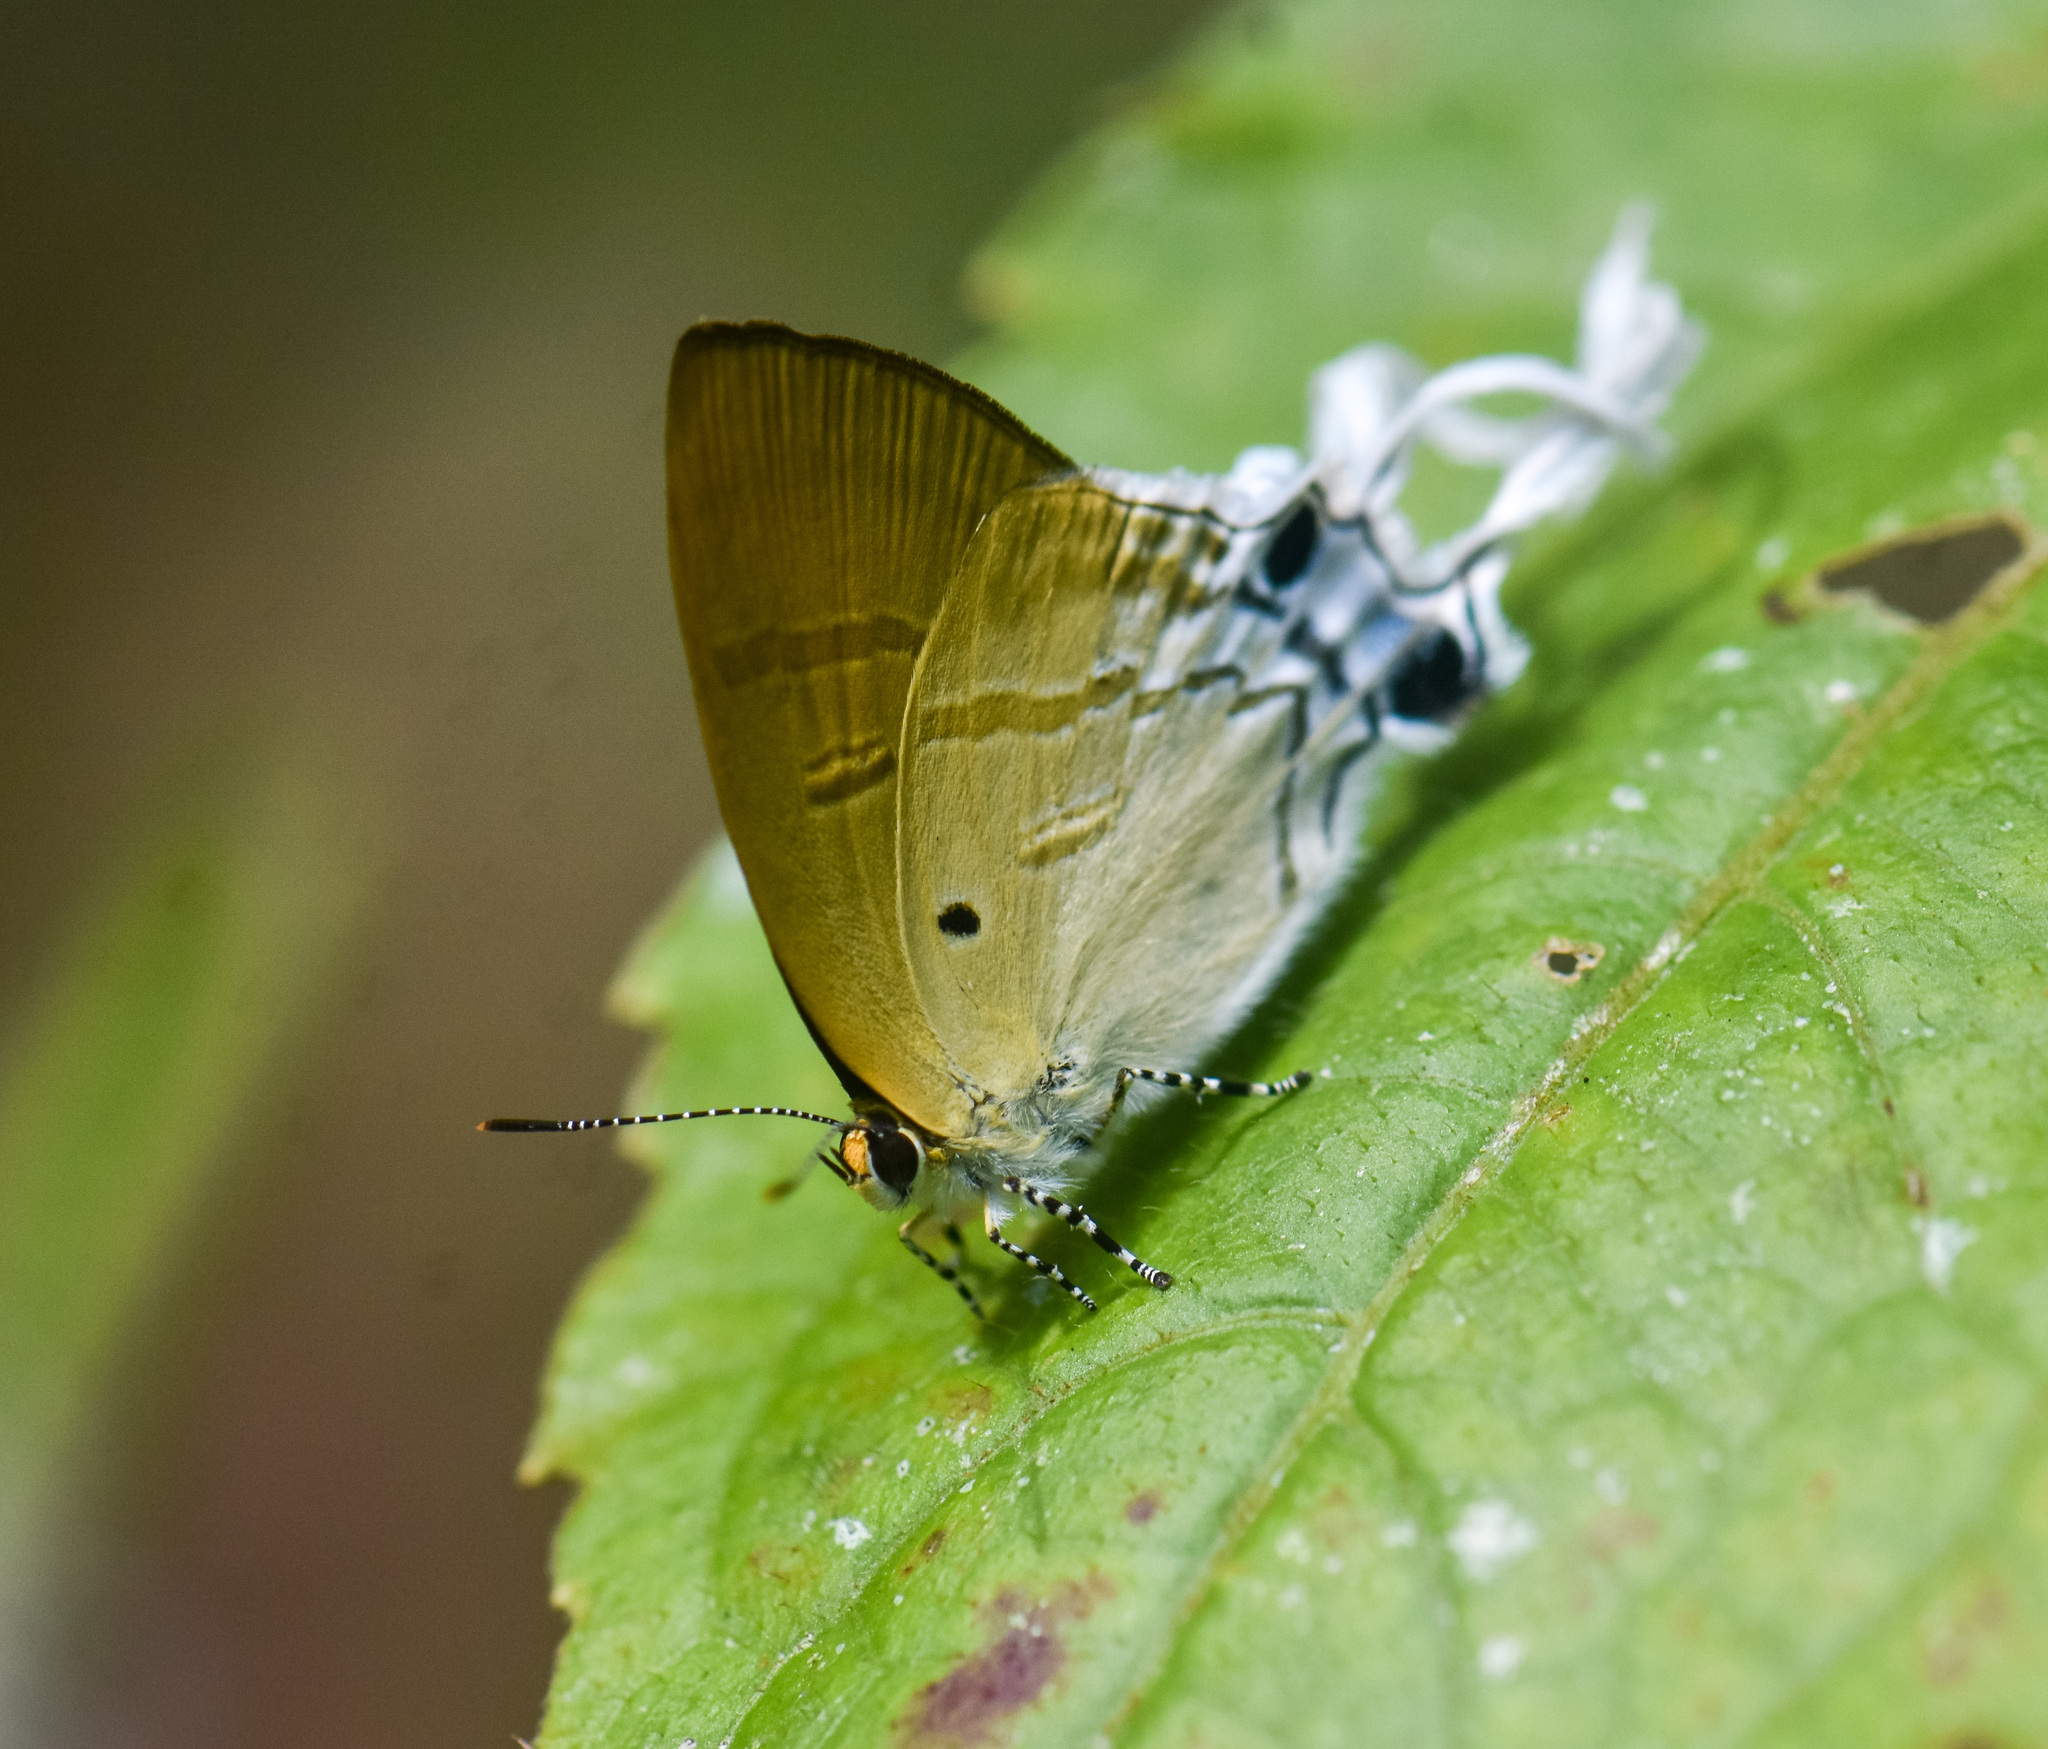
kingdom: Animalia
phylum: Arthropoda
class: Insecta
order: Lepidoptera
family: Lycaenidae
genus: Zeltus
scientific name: Zeltus amasa
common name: Fluffy tit
